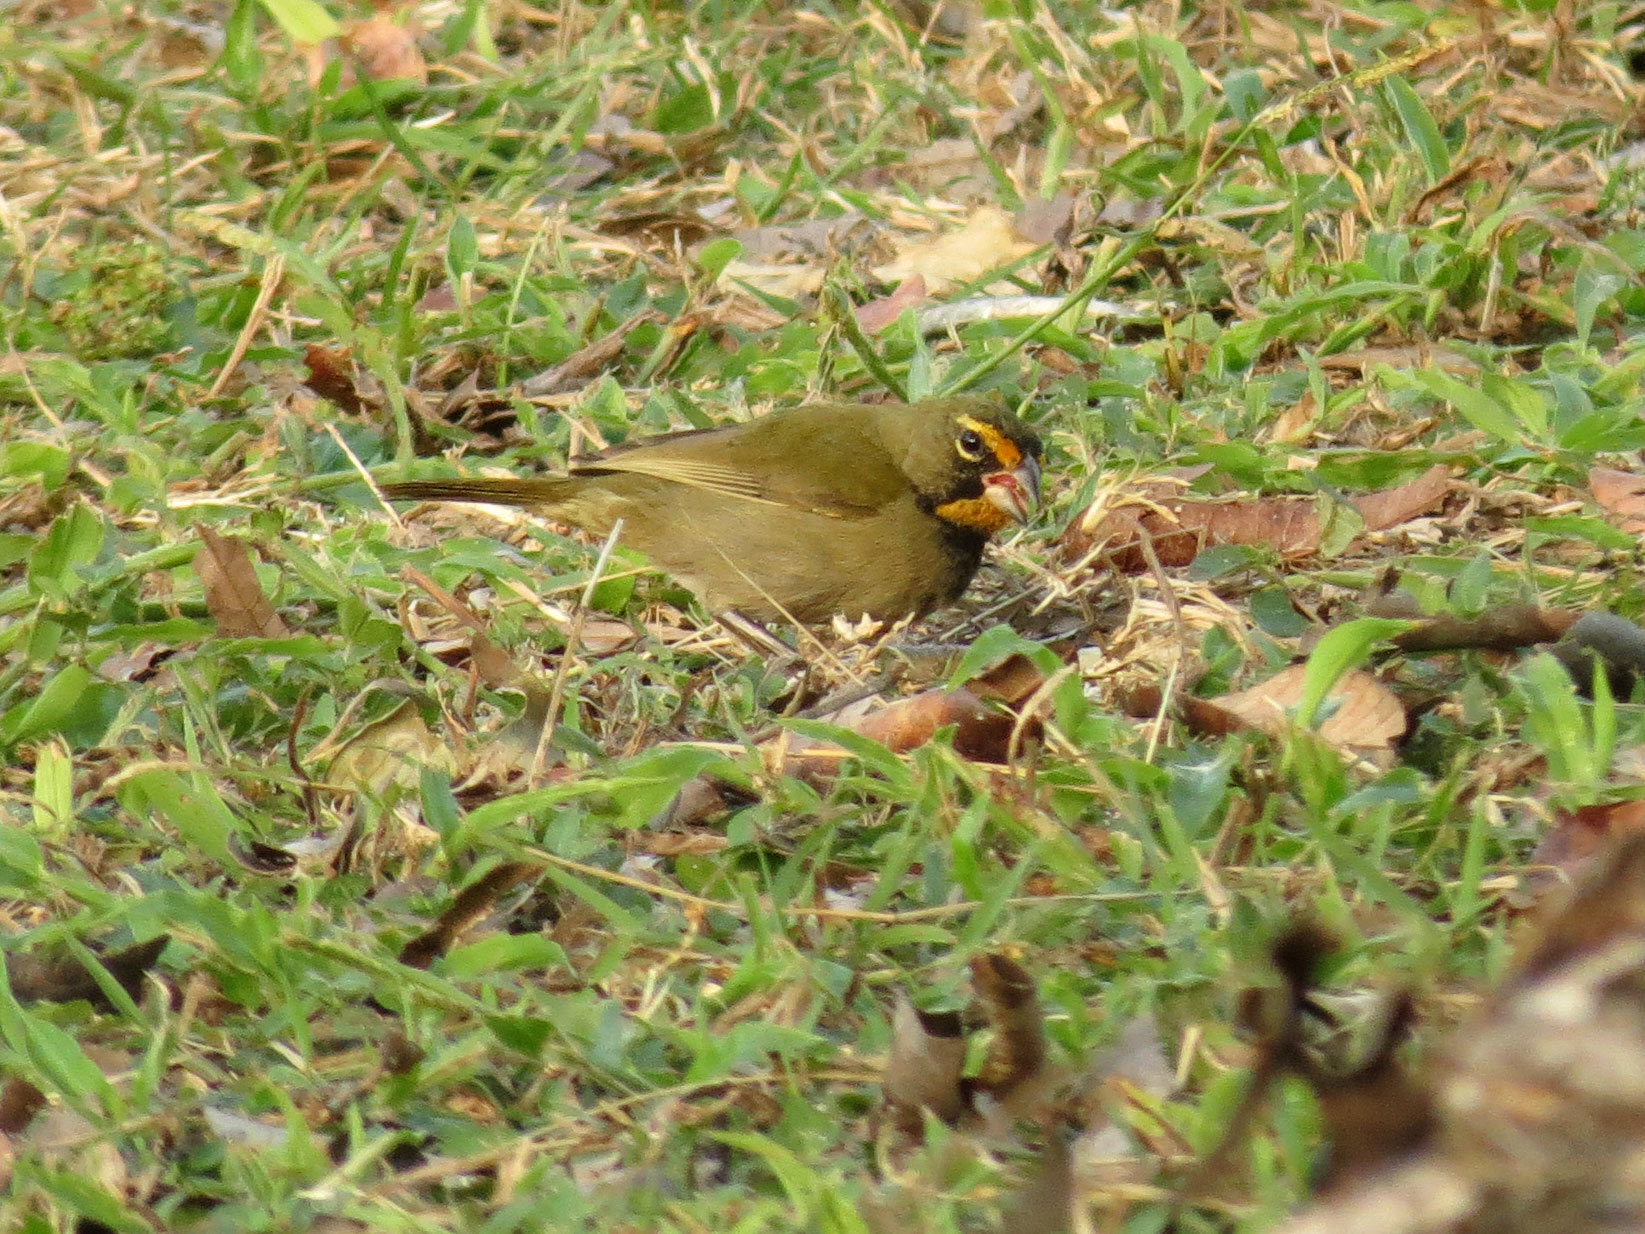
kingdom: Animalia
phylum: Chordata
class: Aves
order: Passeriformes
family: Thraupidae
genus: Tiaris
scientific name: Tiaris olivaceus
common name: Yellow-faced grassquit
